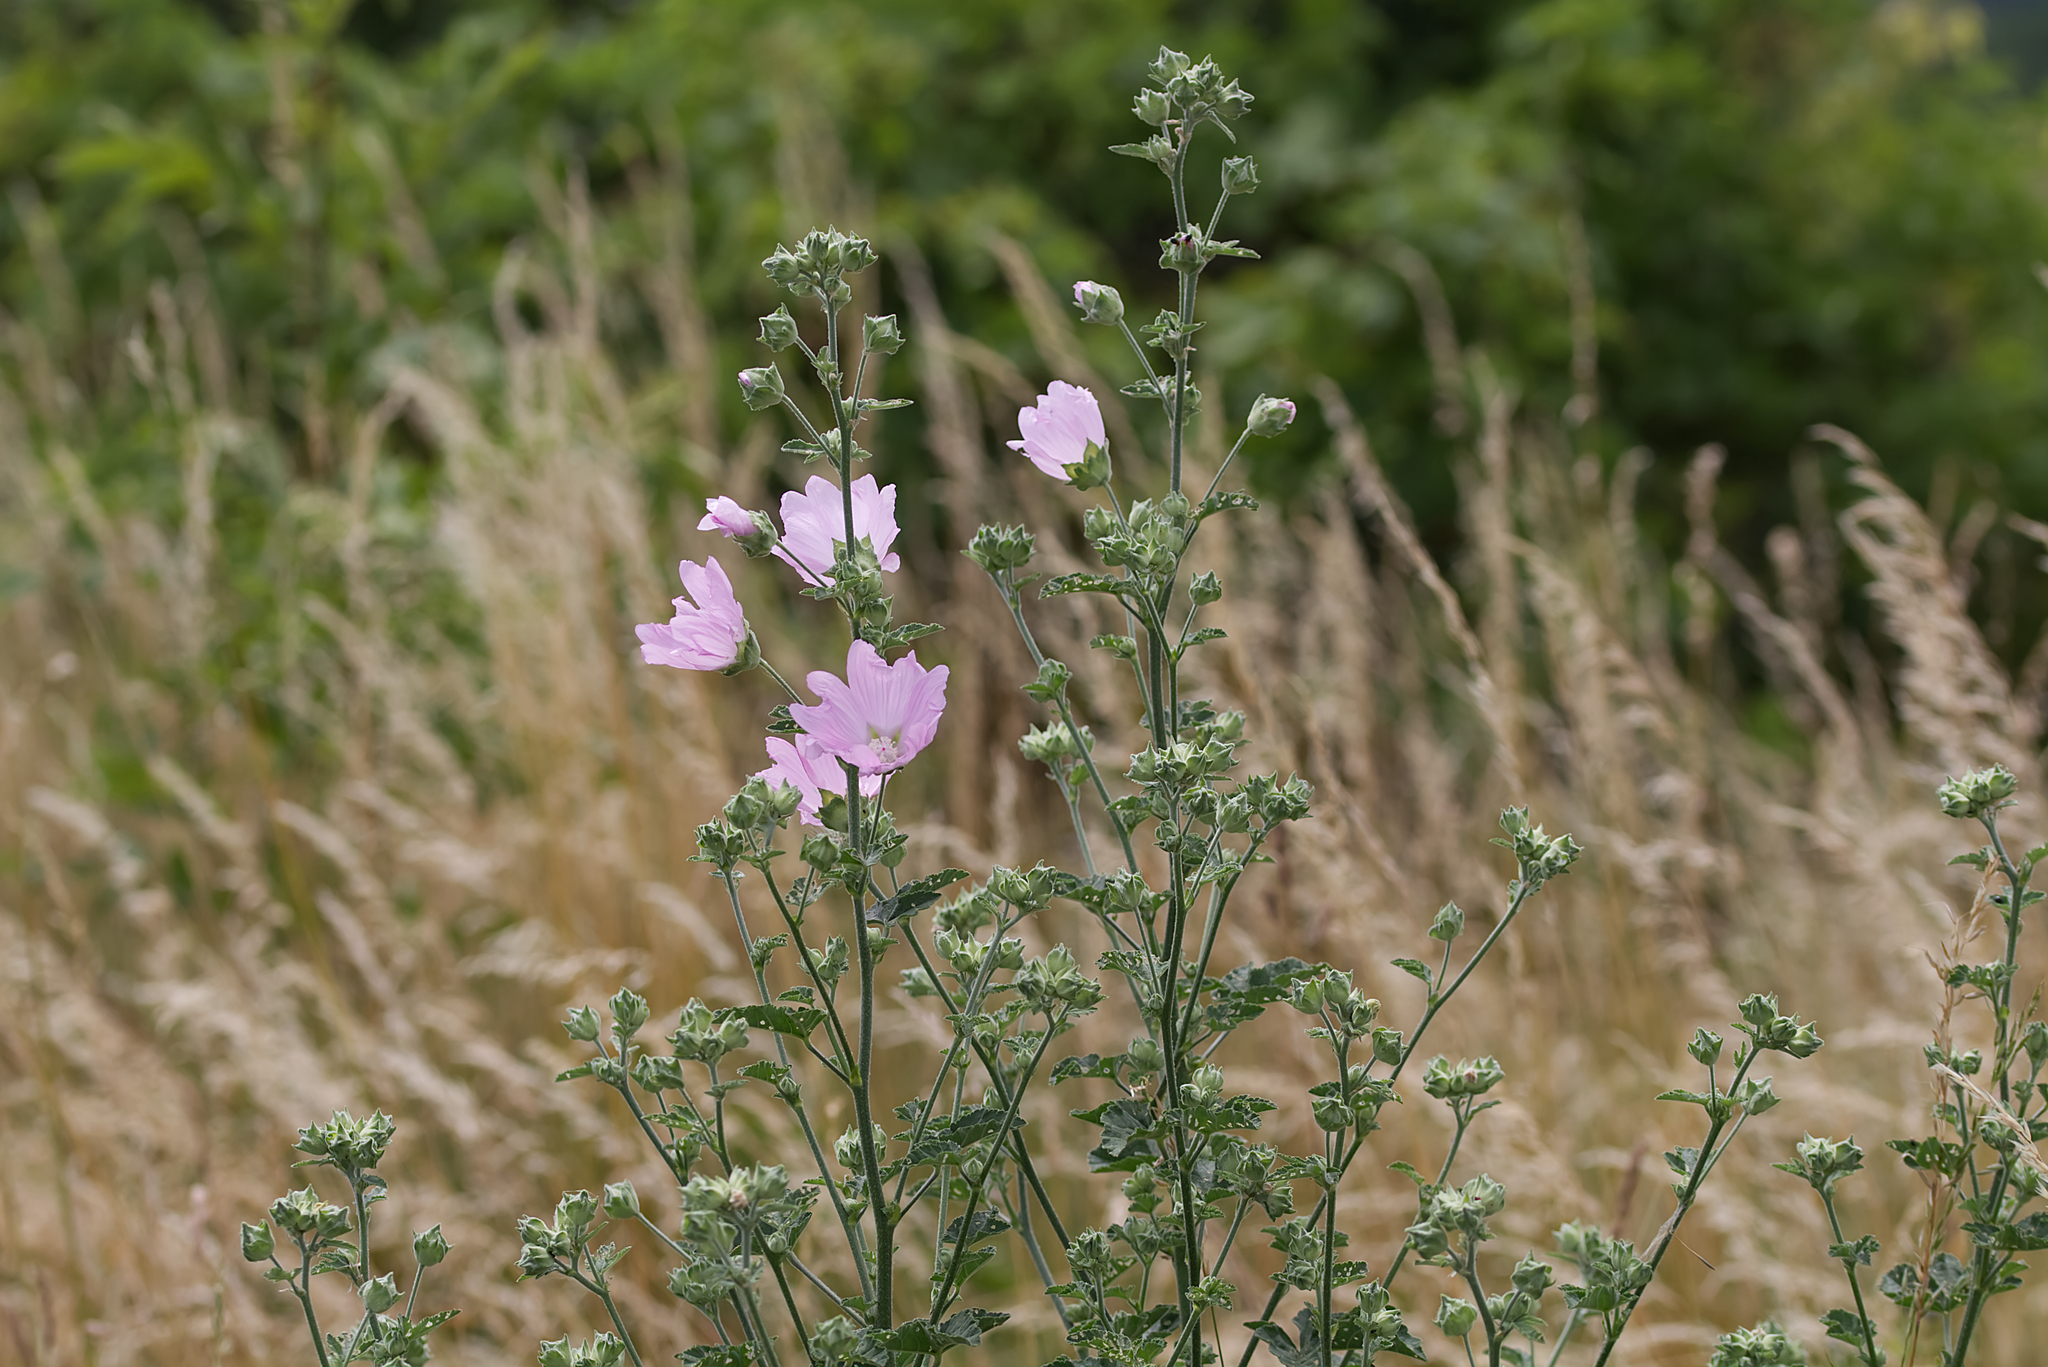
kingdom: Plantae
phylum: Tracheophyta
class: Magnoliopsida
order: Malvales
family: Malvaceae
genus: Malva
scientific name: Malva thuringiaca
